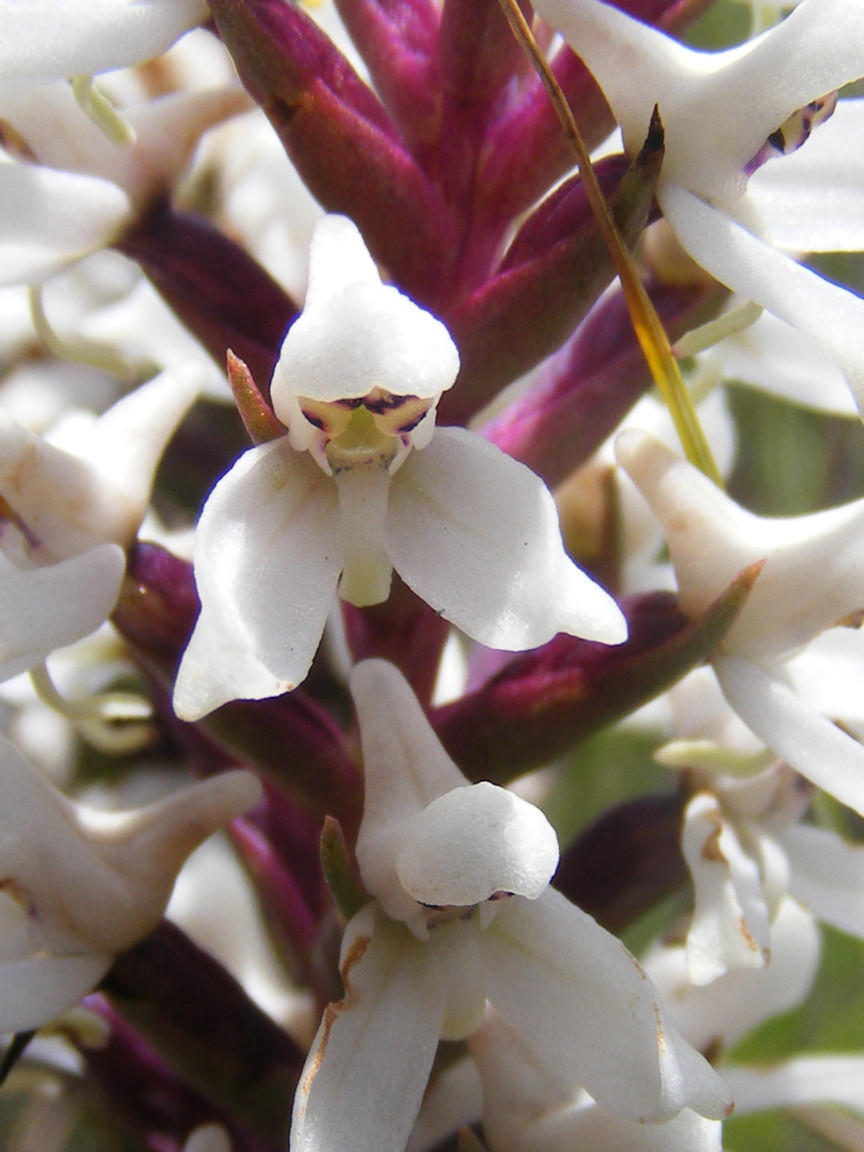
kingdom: Plantae
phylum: Tracheophyta
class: Liliopsida
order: Asparagales
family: Orchidaceae
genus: Disa
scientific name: Disa alticola
